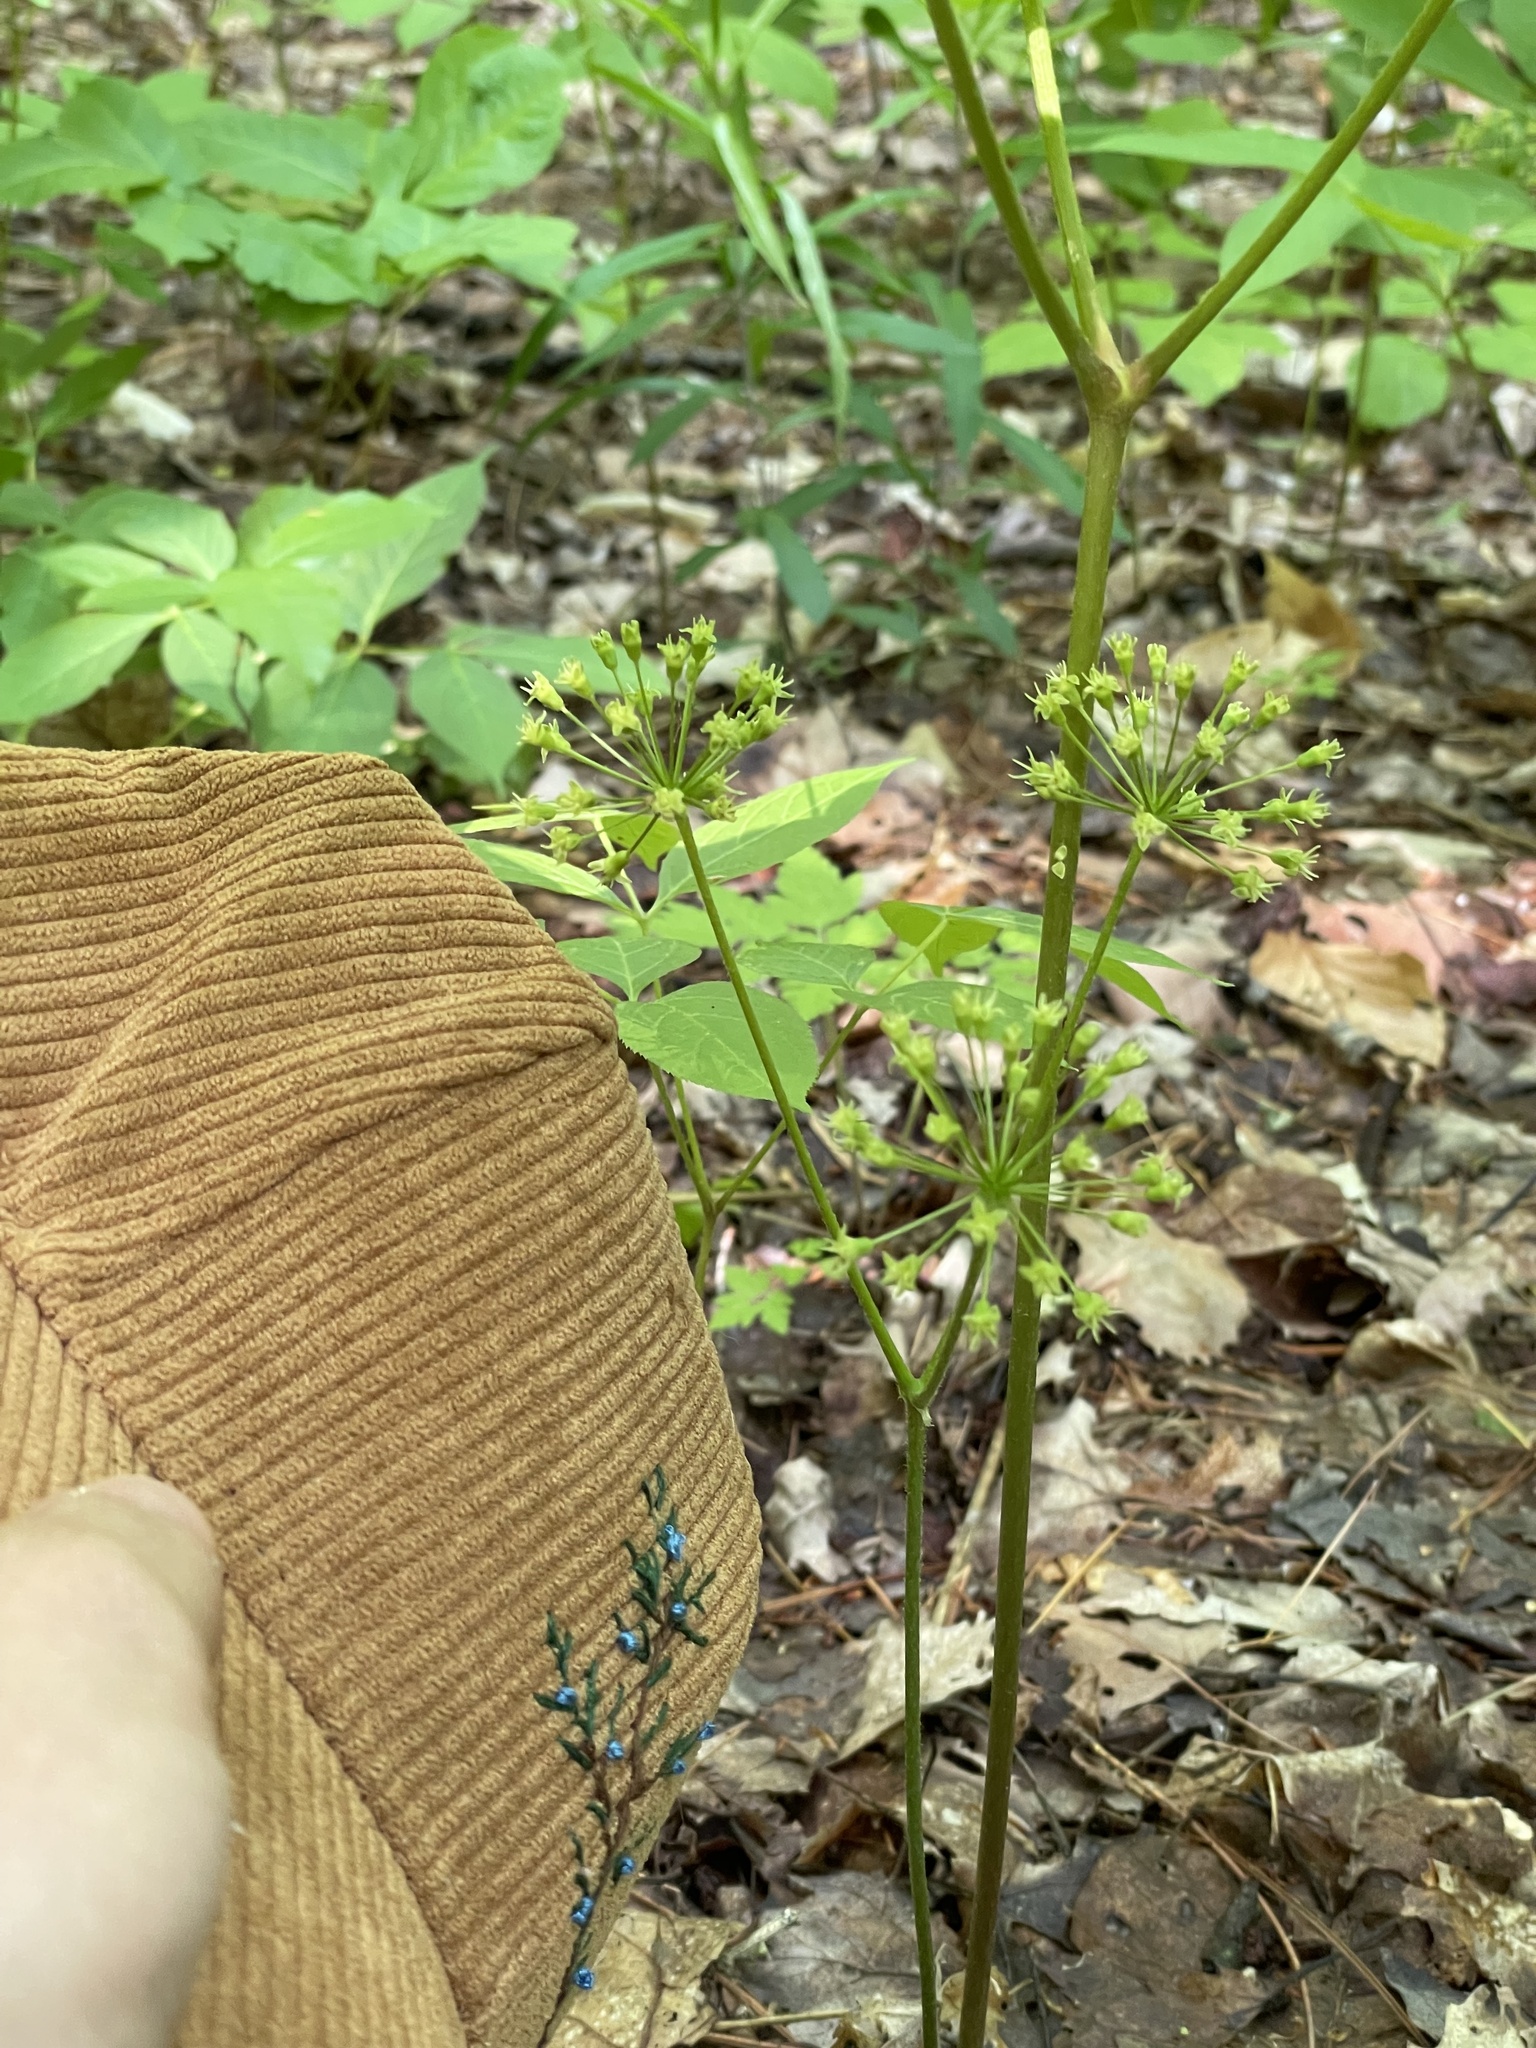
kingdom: Plantae
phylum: Tracheophyta
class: Magnoliopsida
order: Apiales
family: Araliaceae
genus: Aralia
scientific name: Aralia nudicaulis
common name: Wild sarsaparilla
